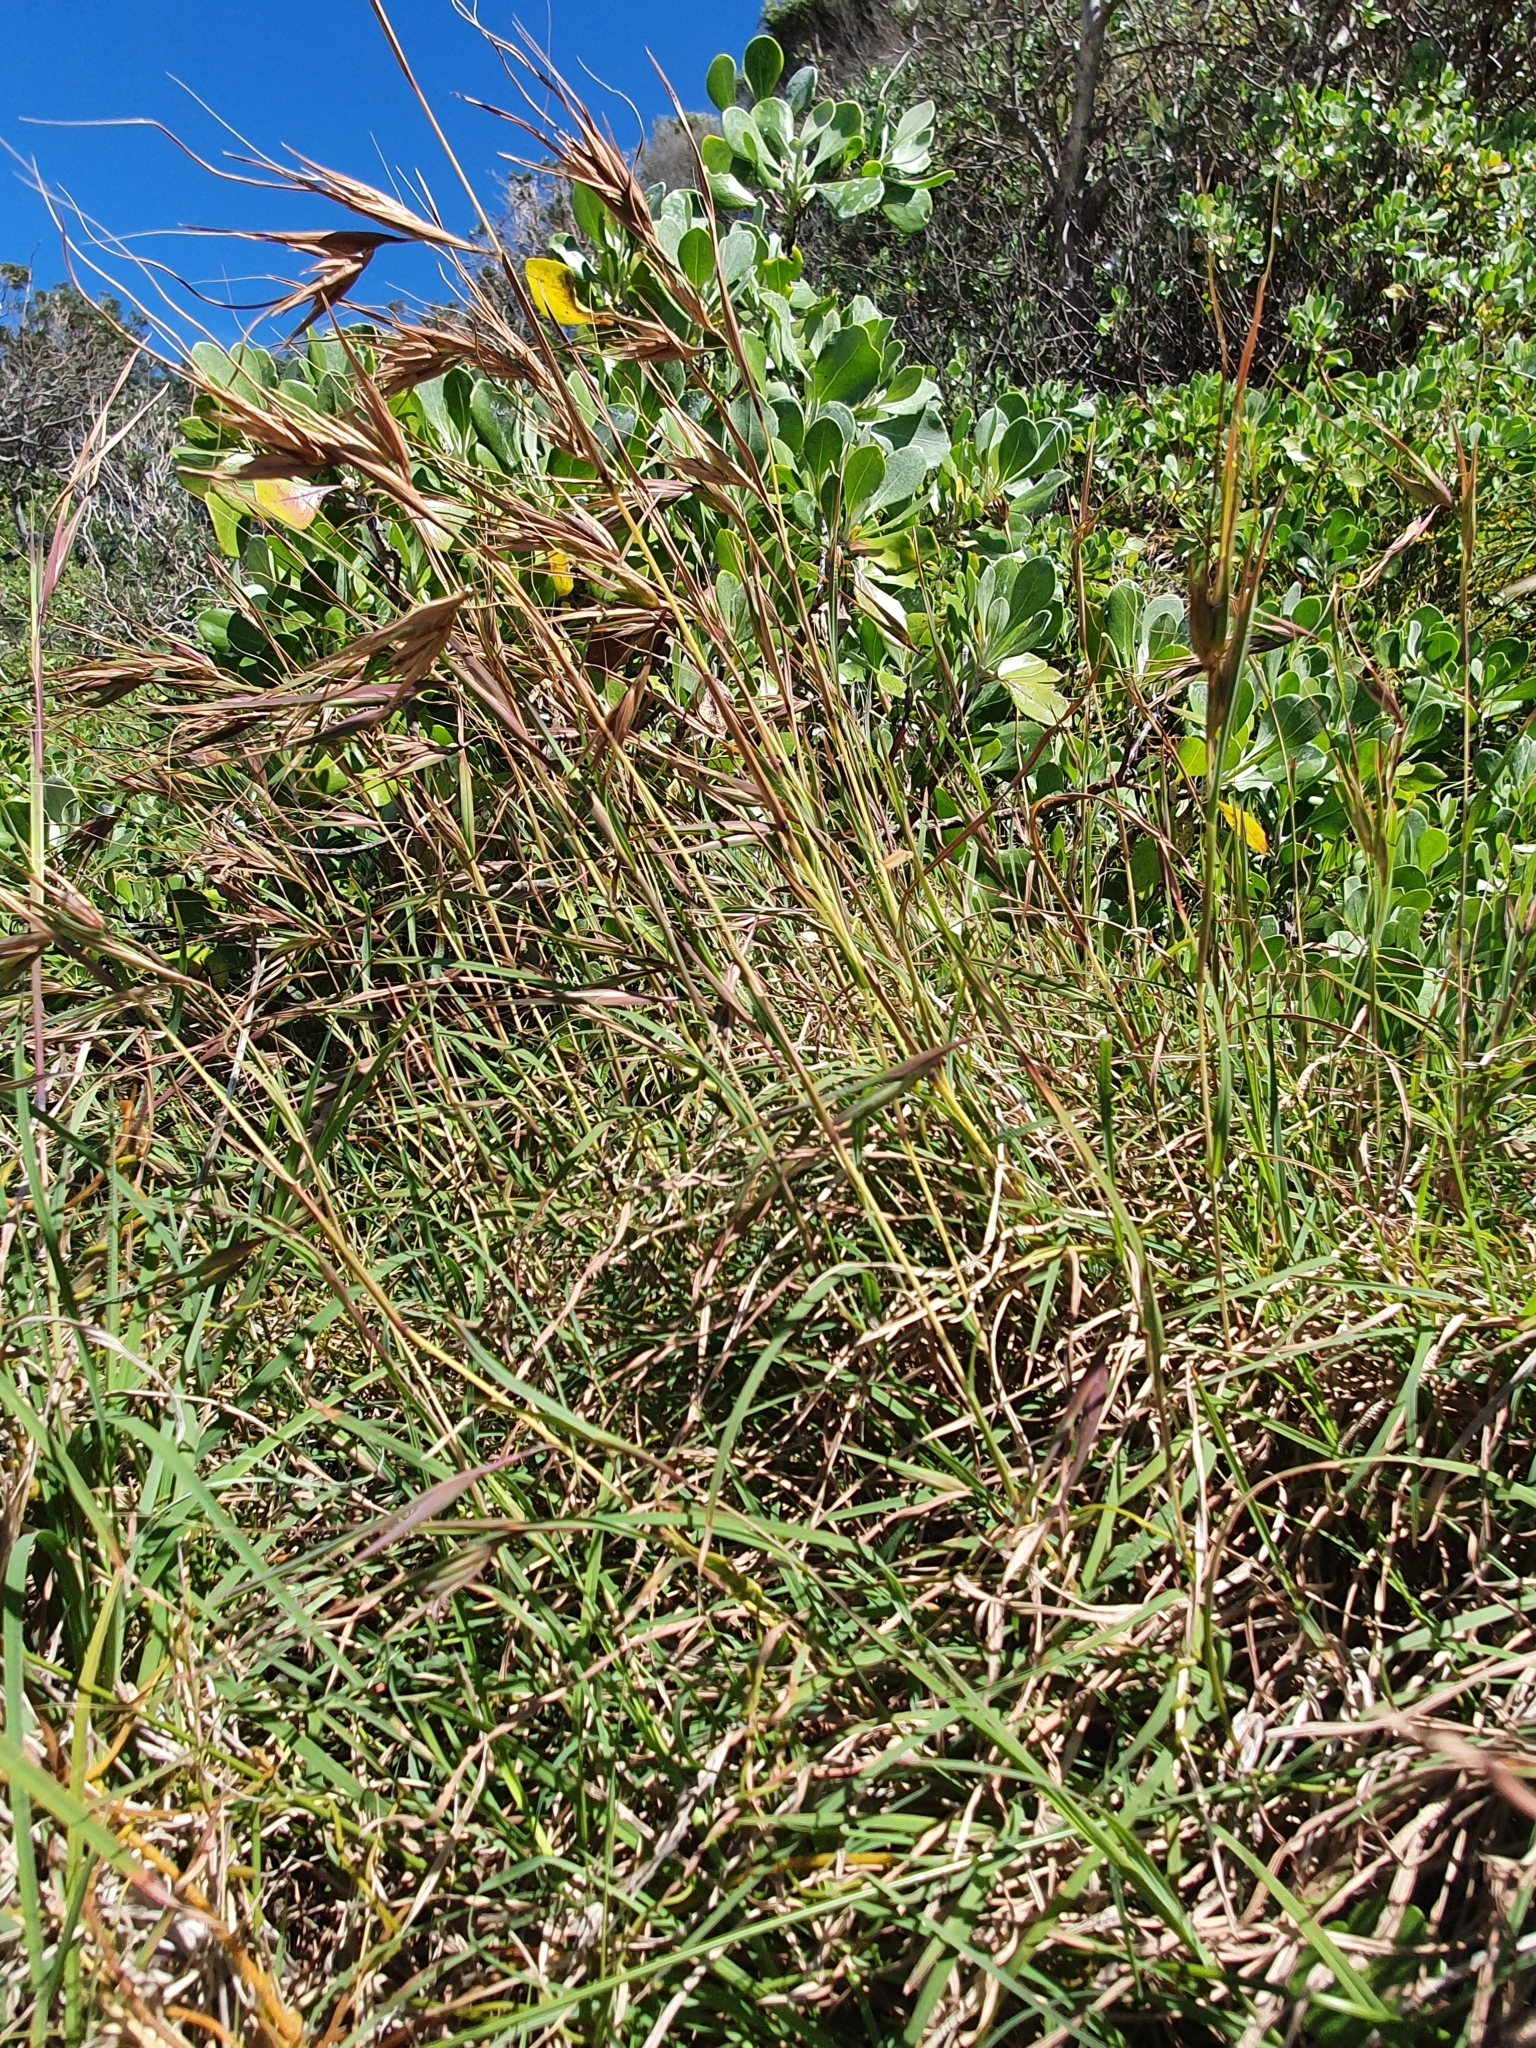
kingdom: Plantae
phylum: Tracheophyta
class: Liliopsida
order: Poales
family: Poaceae
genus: Themeda
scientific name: Themeda triandra
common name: Kangaroo grass
